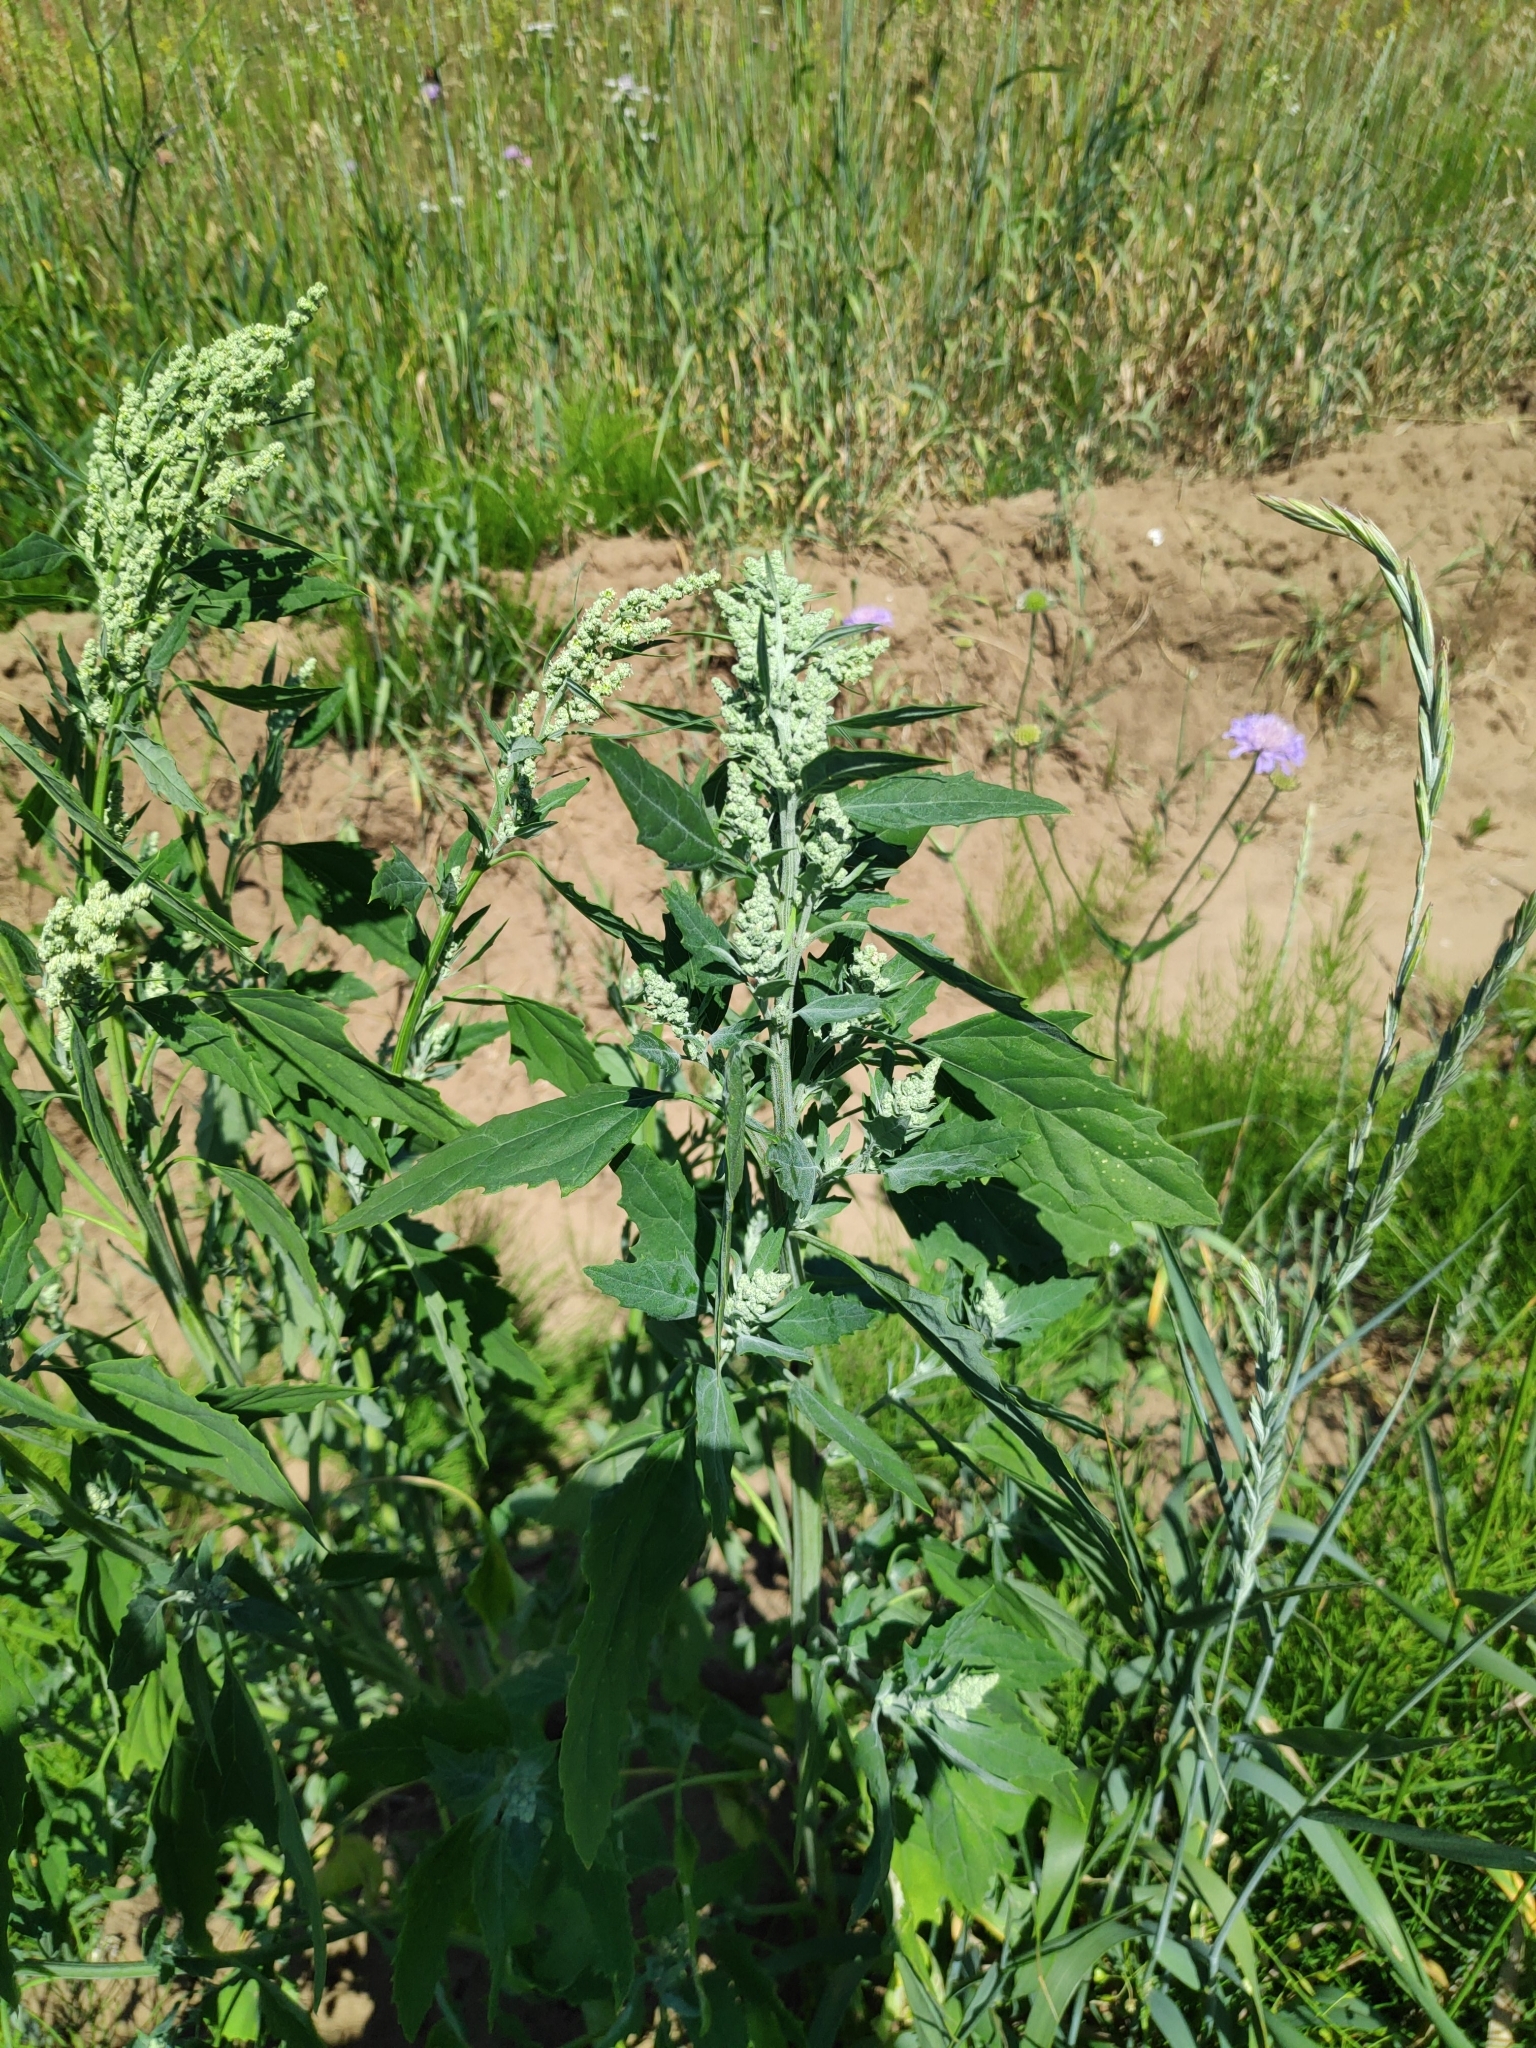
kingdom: Plantae
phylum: Tracheophyta
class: Magnoliopsida
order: Caryophyllales
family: Amaranthaceae
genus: Chenopodium
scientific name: Chenopodium album
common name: Fat-hen
